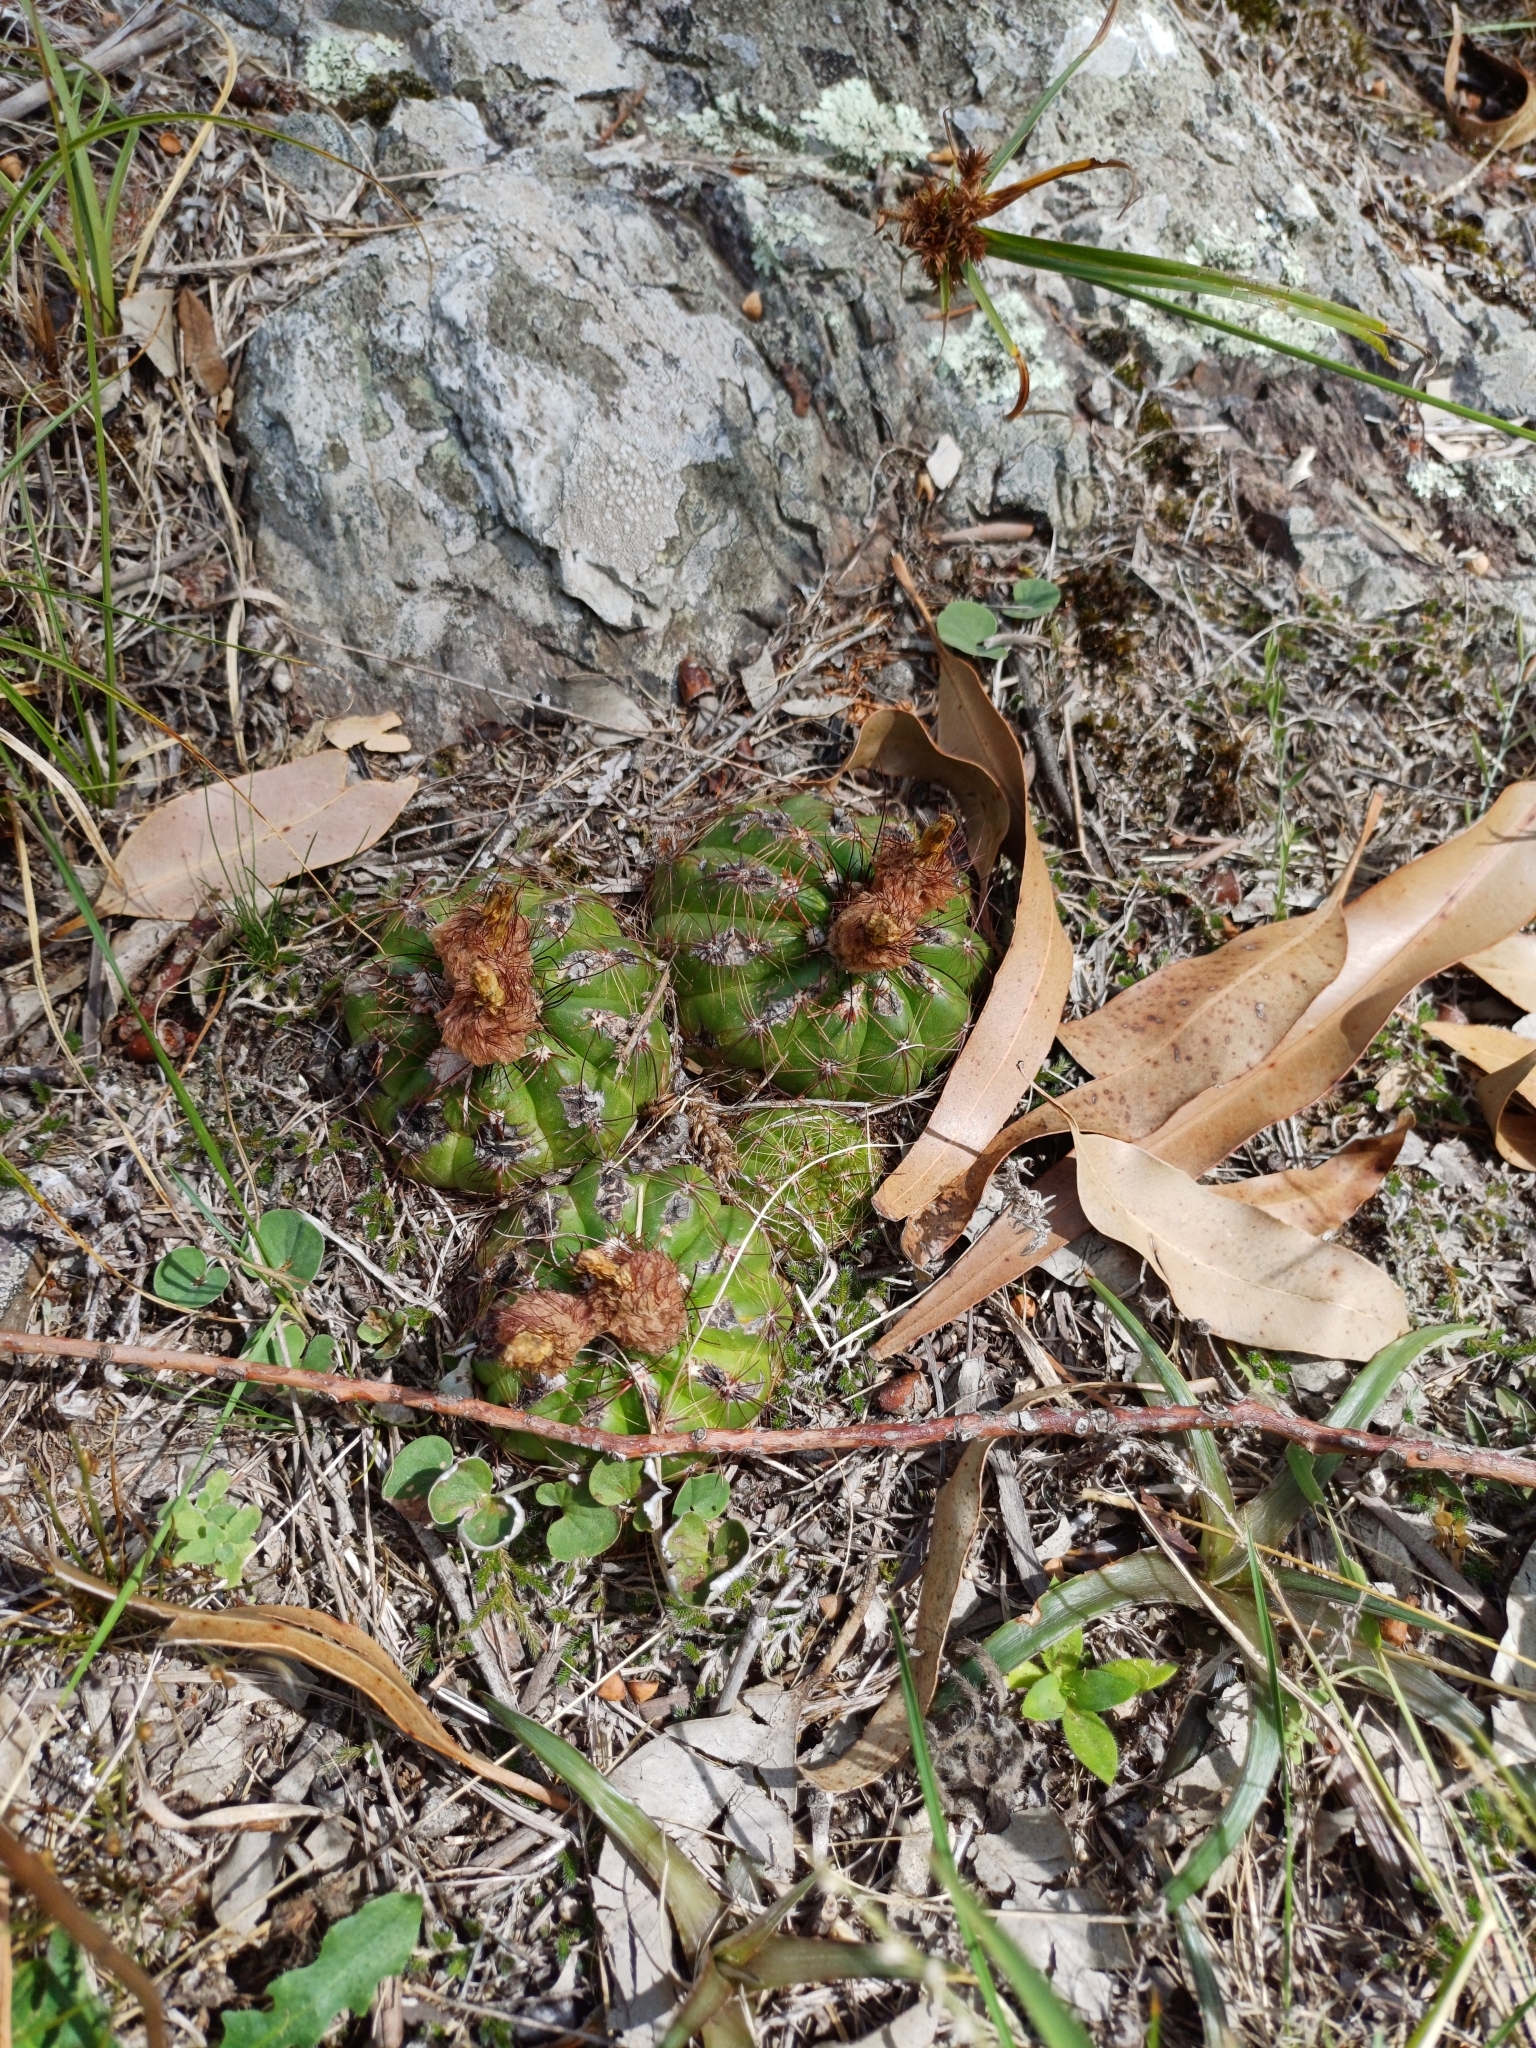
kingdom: Plantae
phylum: Tracheophyta
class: Magnoliopsida
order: Caryophyllales
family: Cactaceae
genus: Parodia
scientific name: Parodia ottonis
